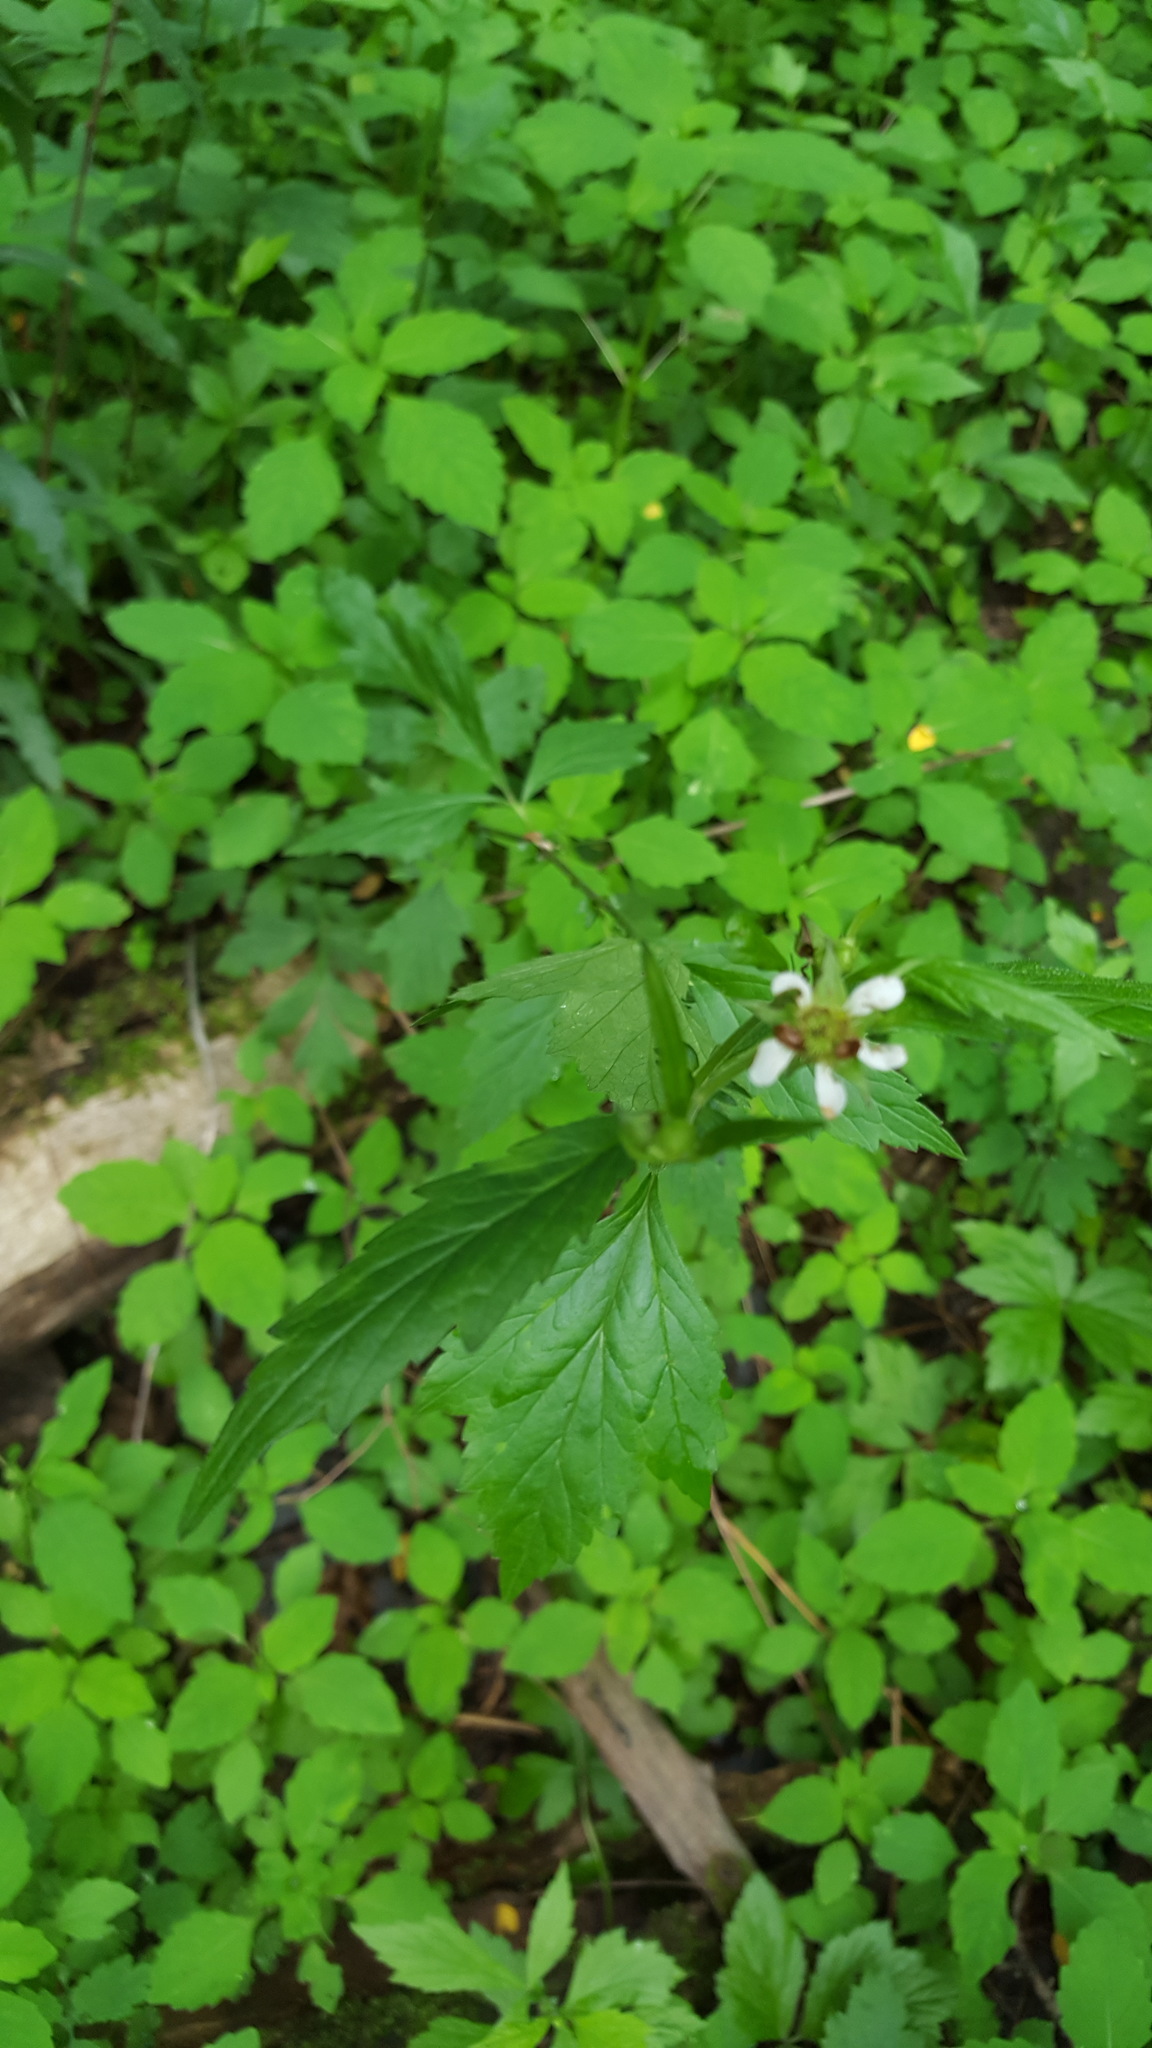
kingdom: Plantae
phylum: Tracheophyta
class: Magnoliopsida
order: Rosales
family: Rosaceae
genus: Geum
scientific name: Geum canadense
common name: White avens
